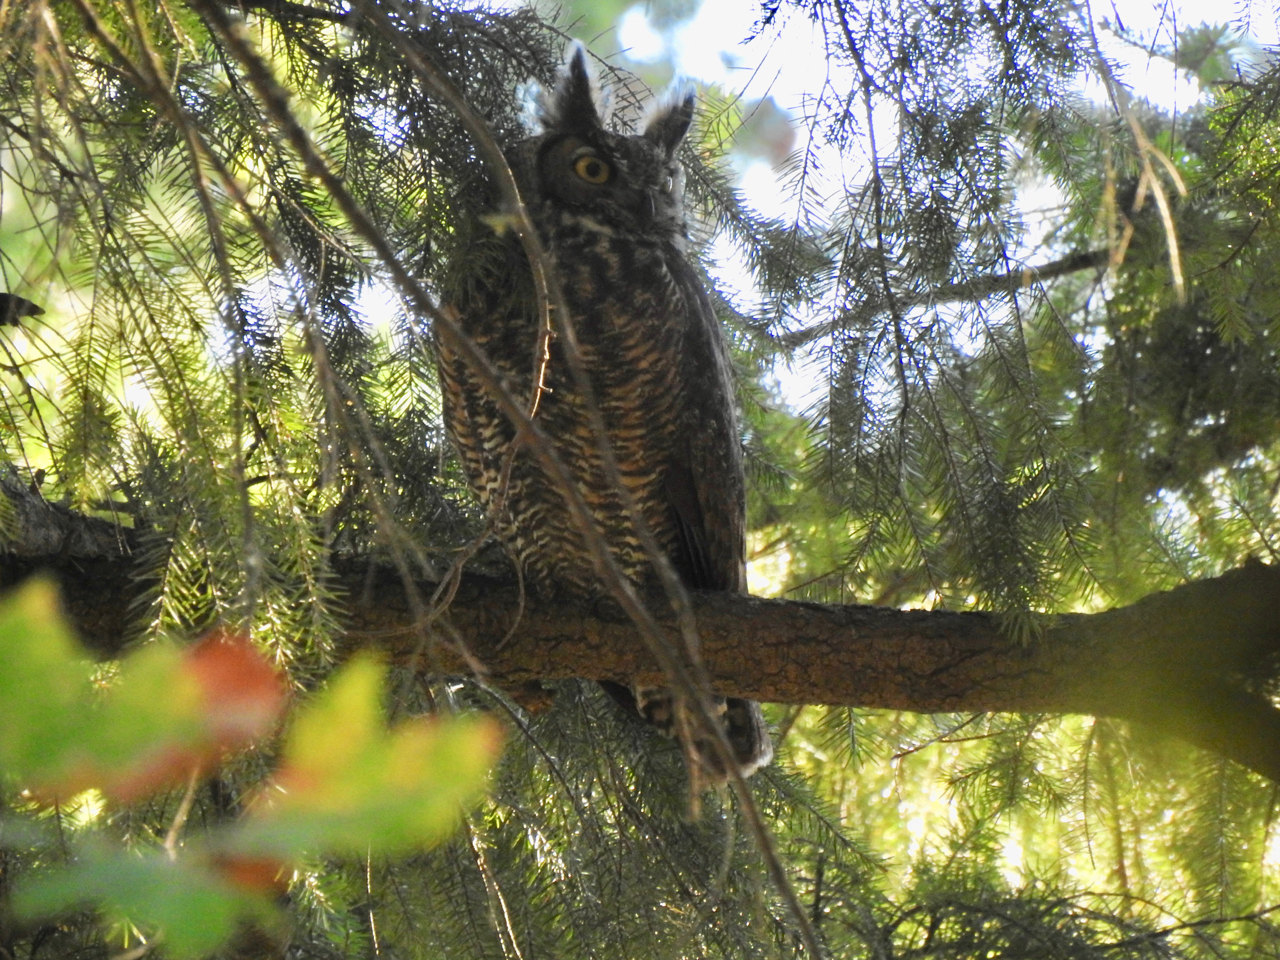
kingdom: Animalia
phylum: Chordata
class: Aves
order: Strigiformes
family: Strigidae
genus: Bubo
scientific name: Bubo virginianus
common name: Great horned owl
